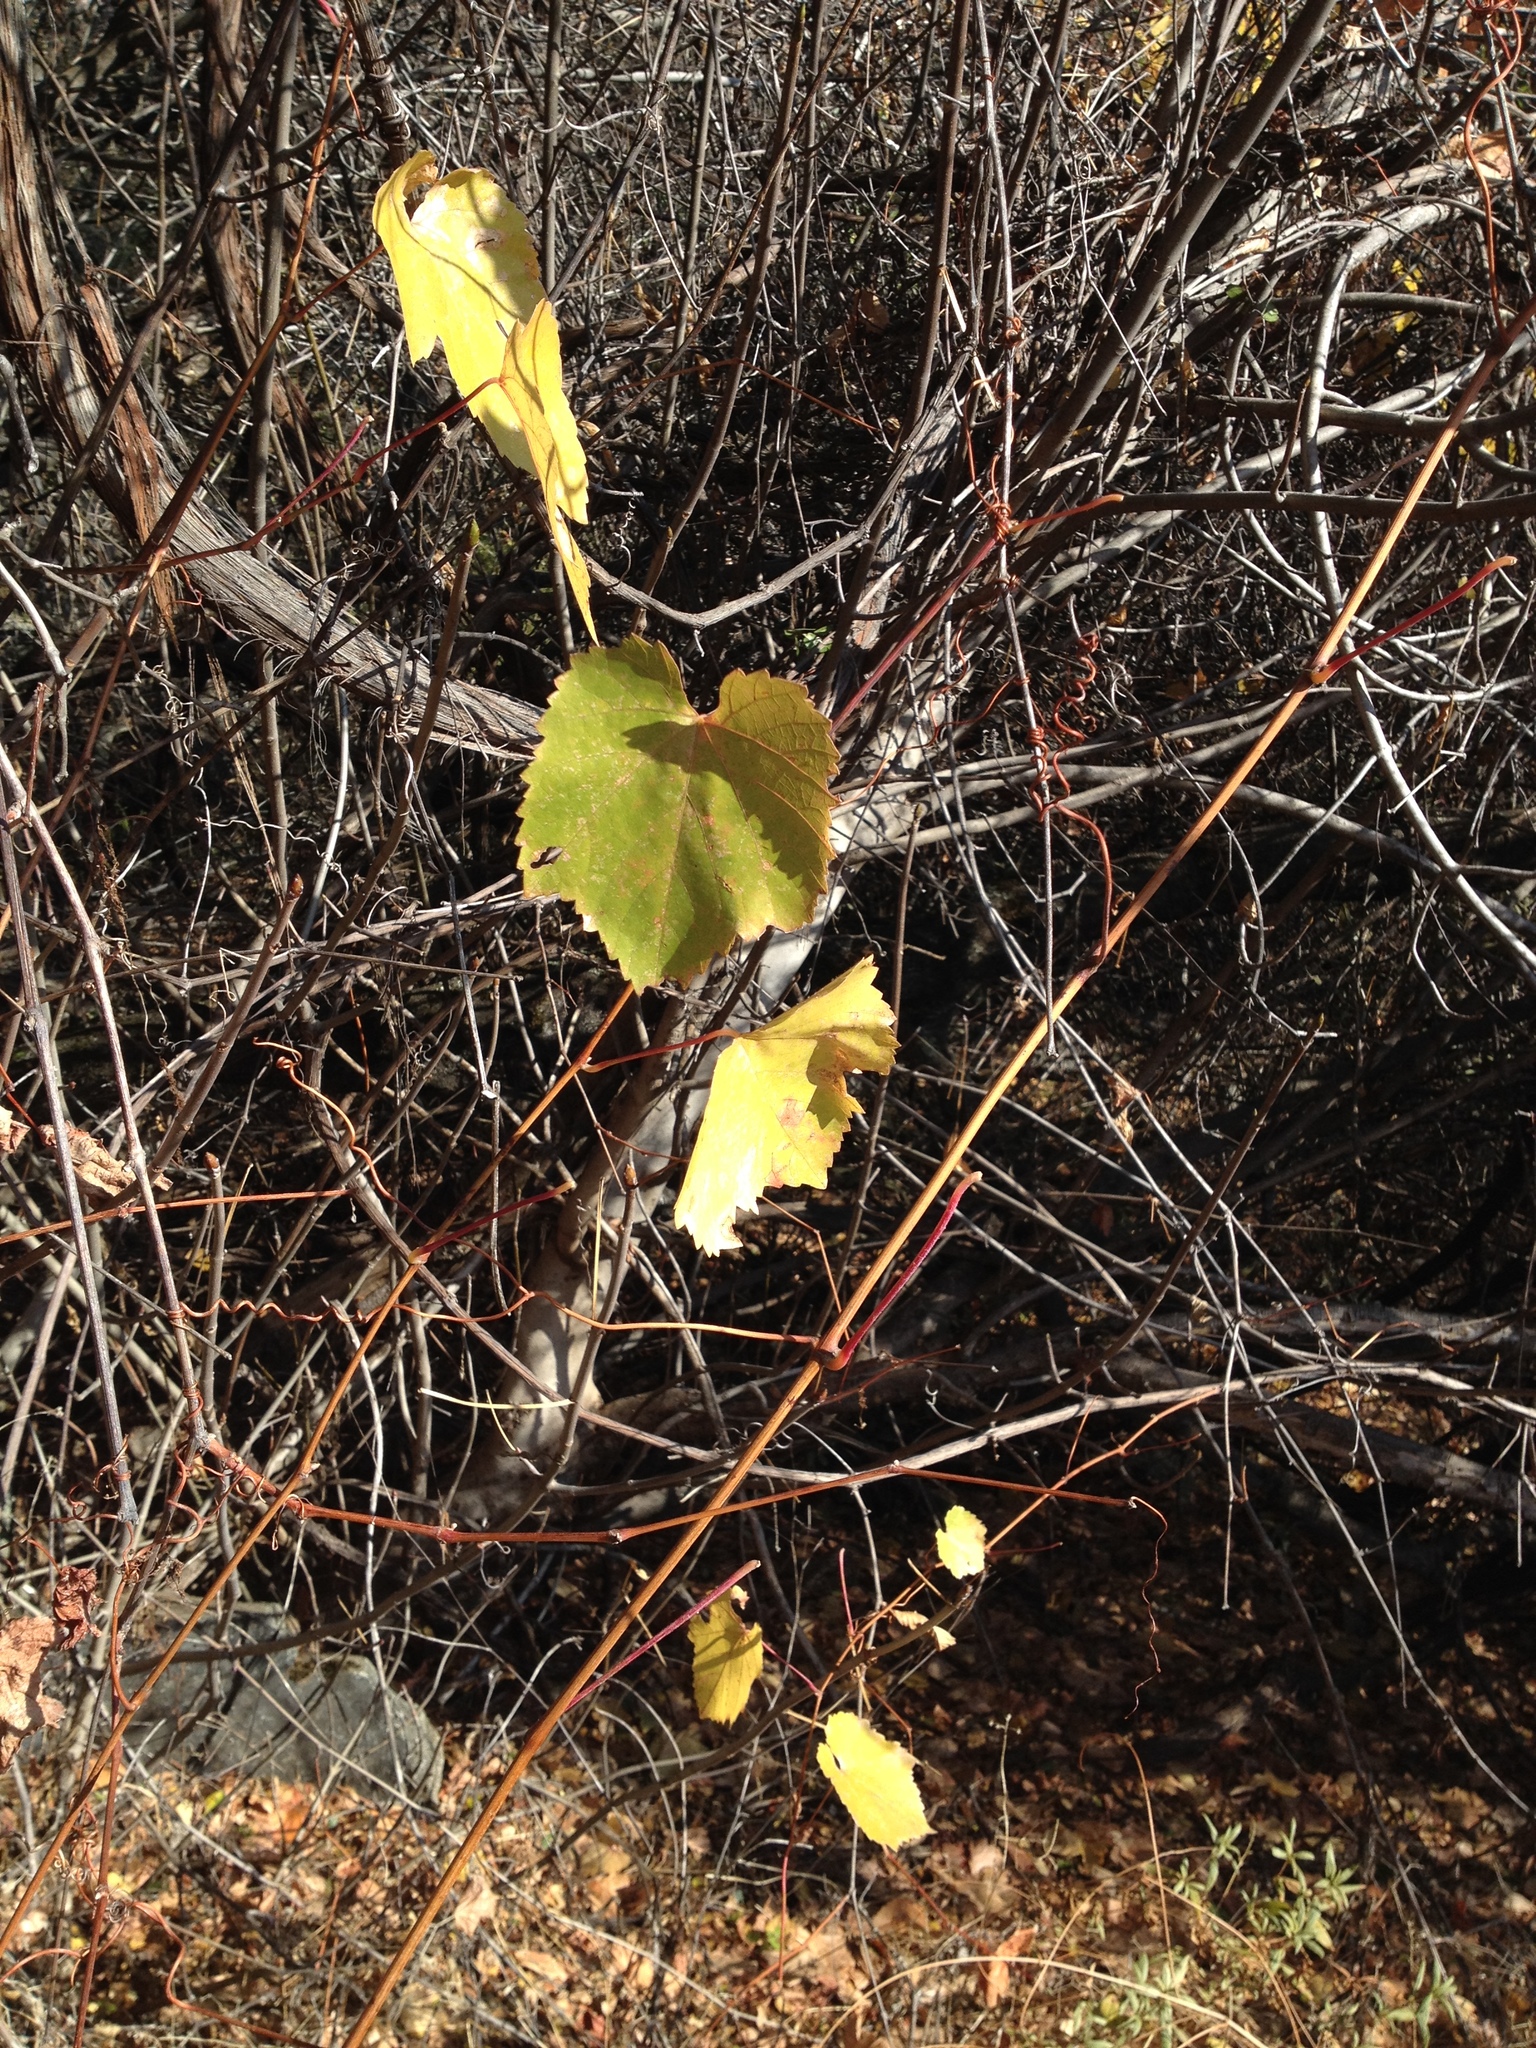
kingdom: Plantae
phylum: Tracheophyta
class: Magnoliopsida
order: Vitales
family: Vitaceae
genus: Vitis
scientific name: Vitis californica
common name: California wild grape
